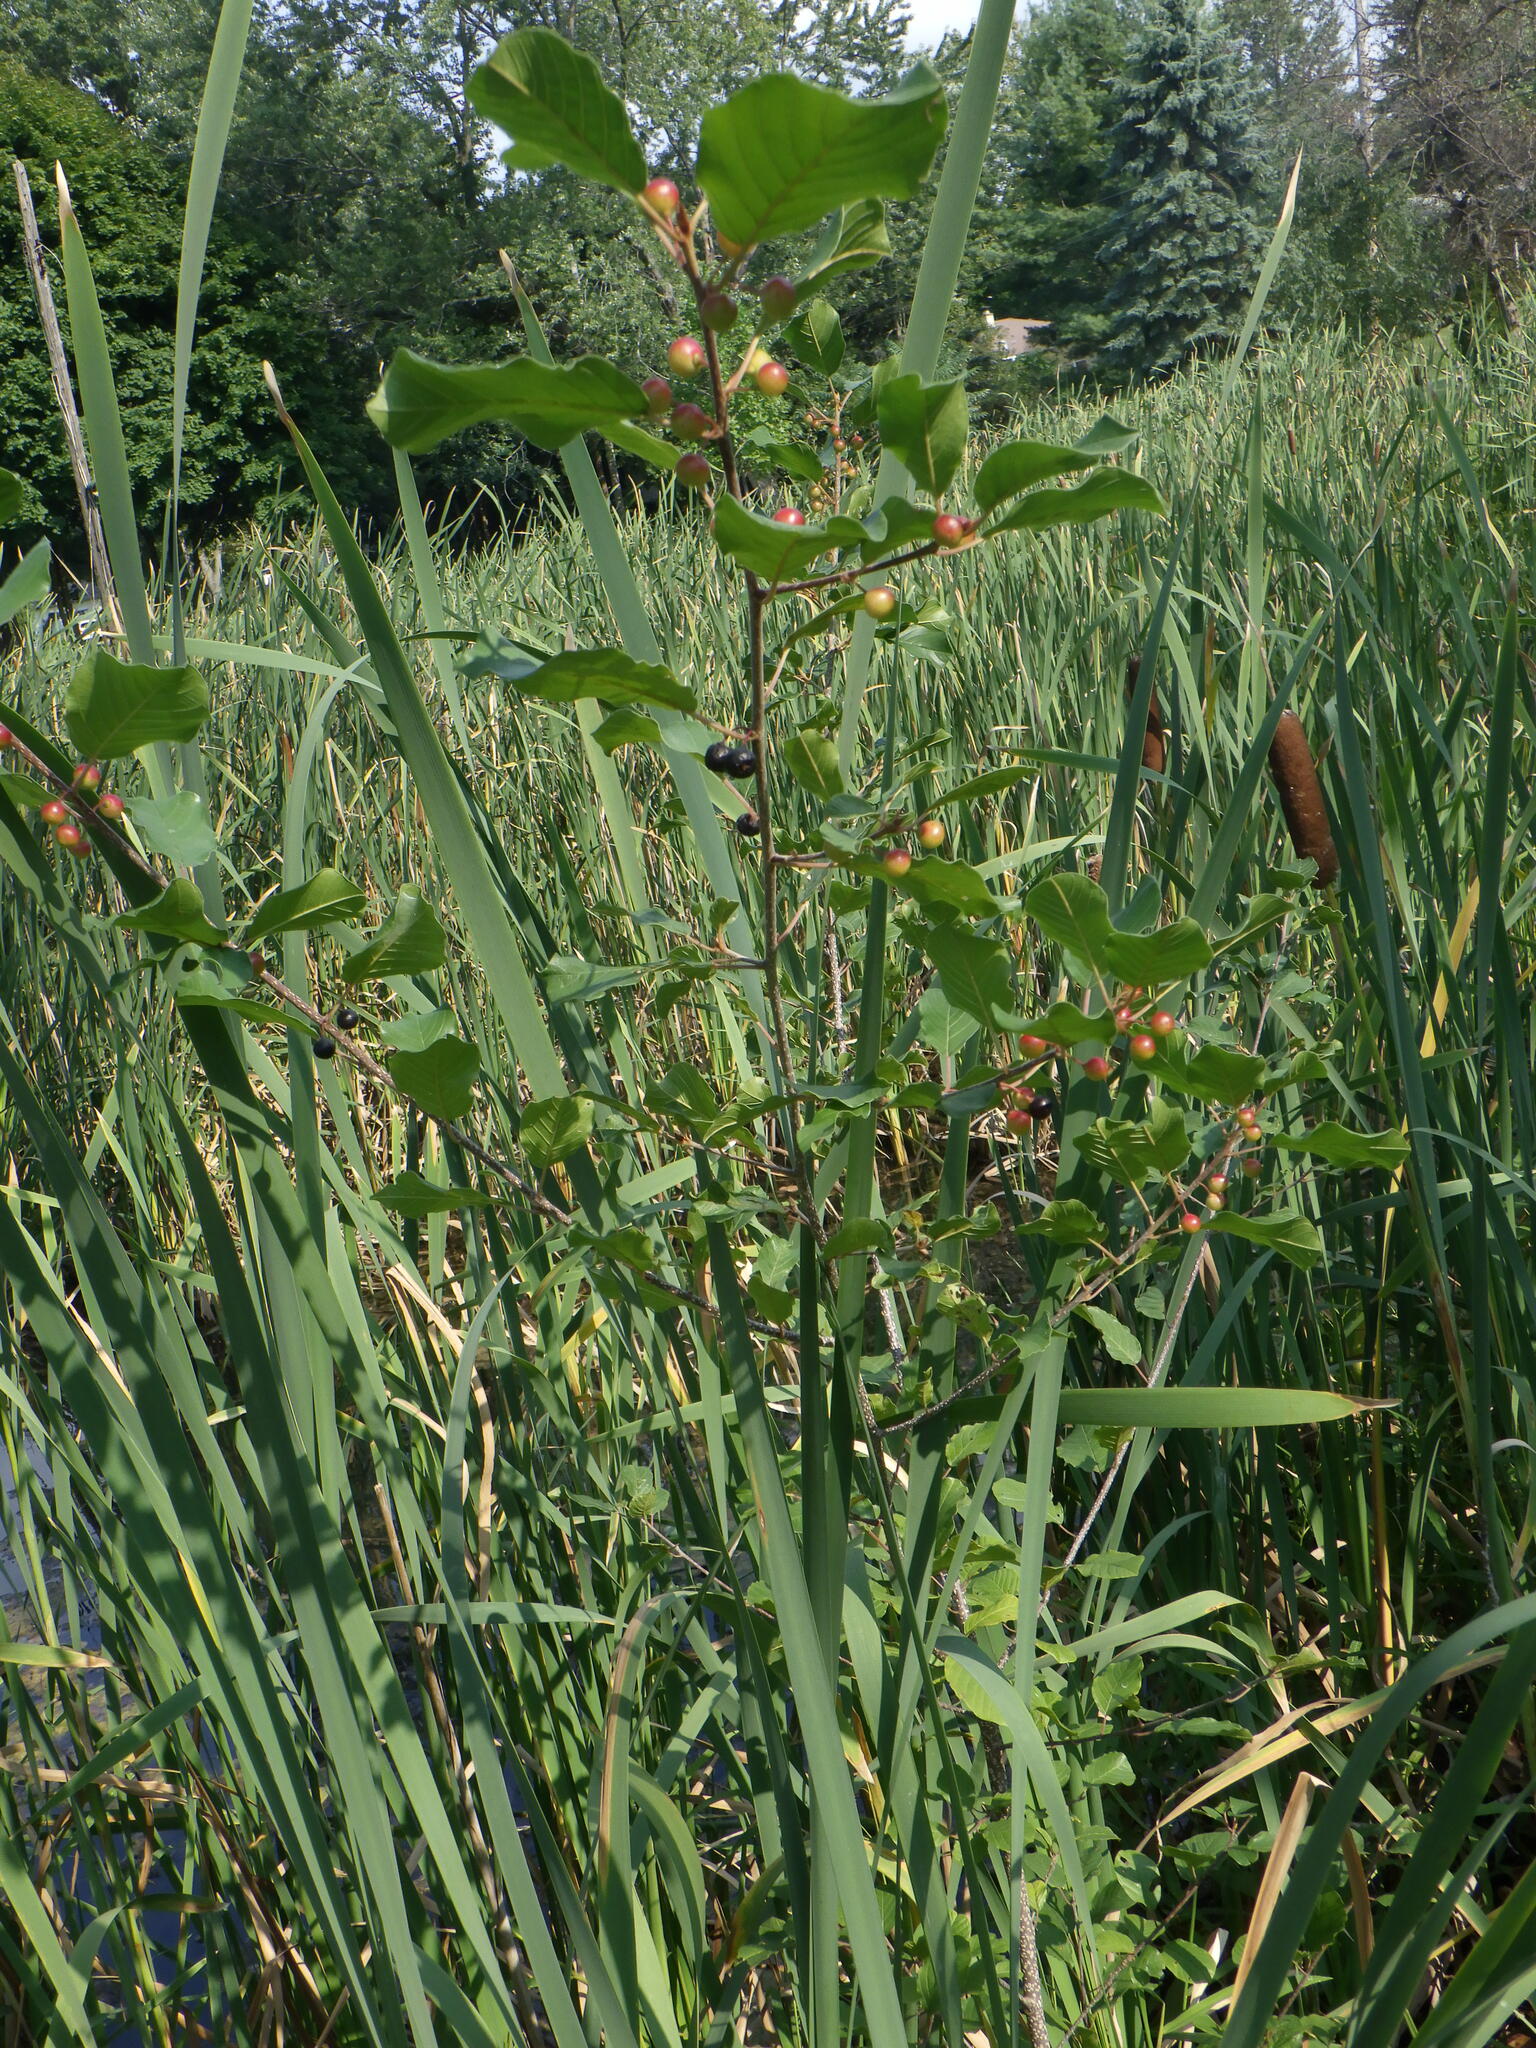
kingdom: Plantae
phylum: Tracheophyta
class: Magnoliopsida
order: Rosales
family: Rhamnaceae
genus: Frangula
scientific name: Frangula alnus
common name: Alder buckthorn
